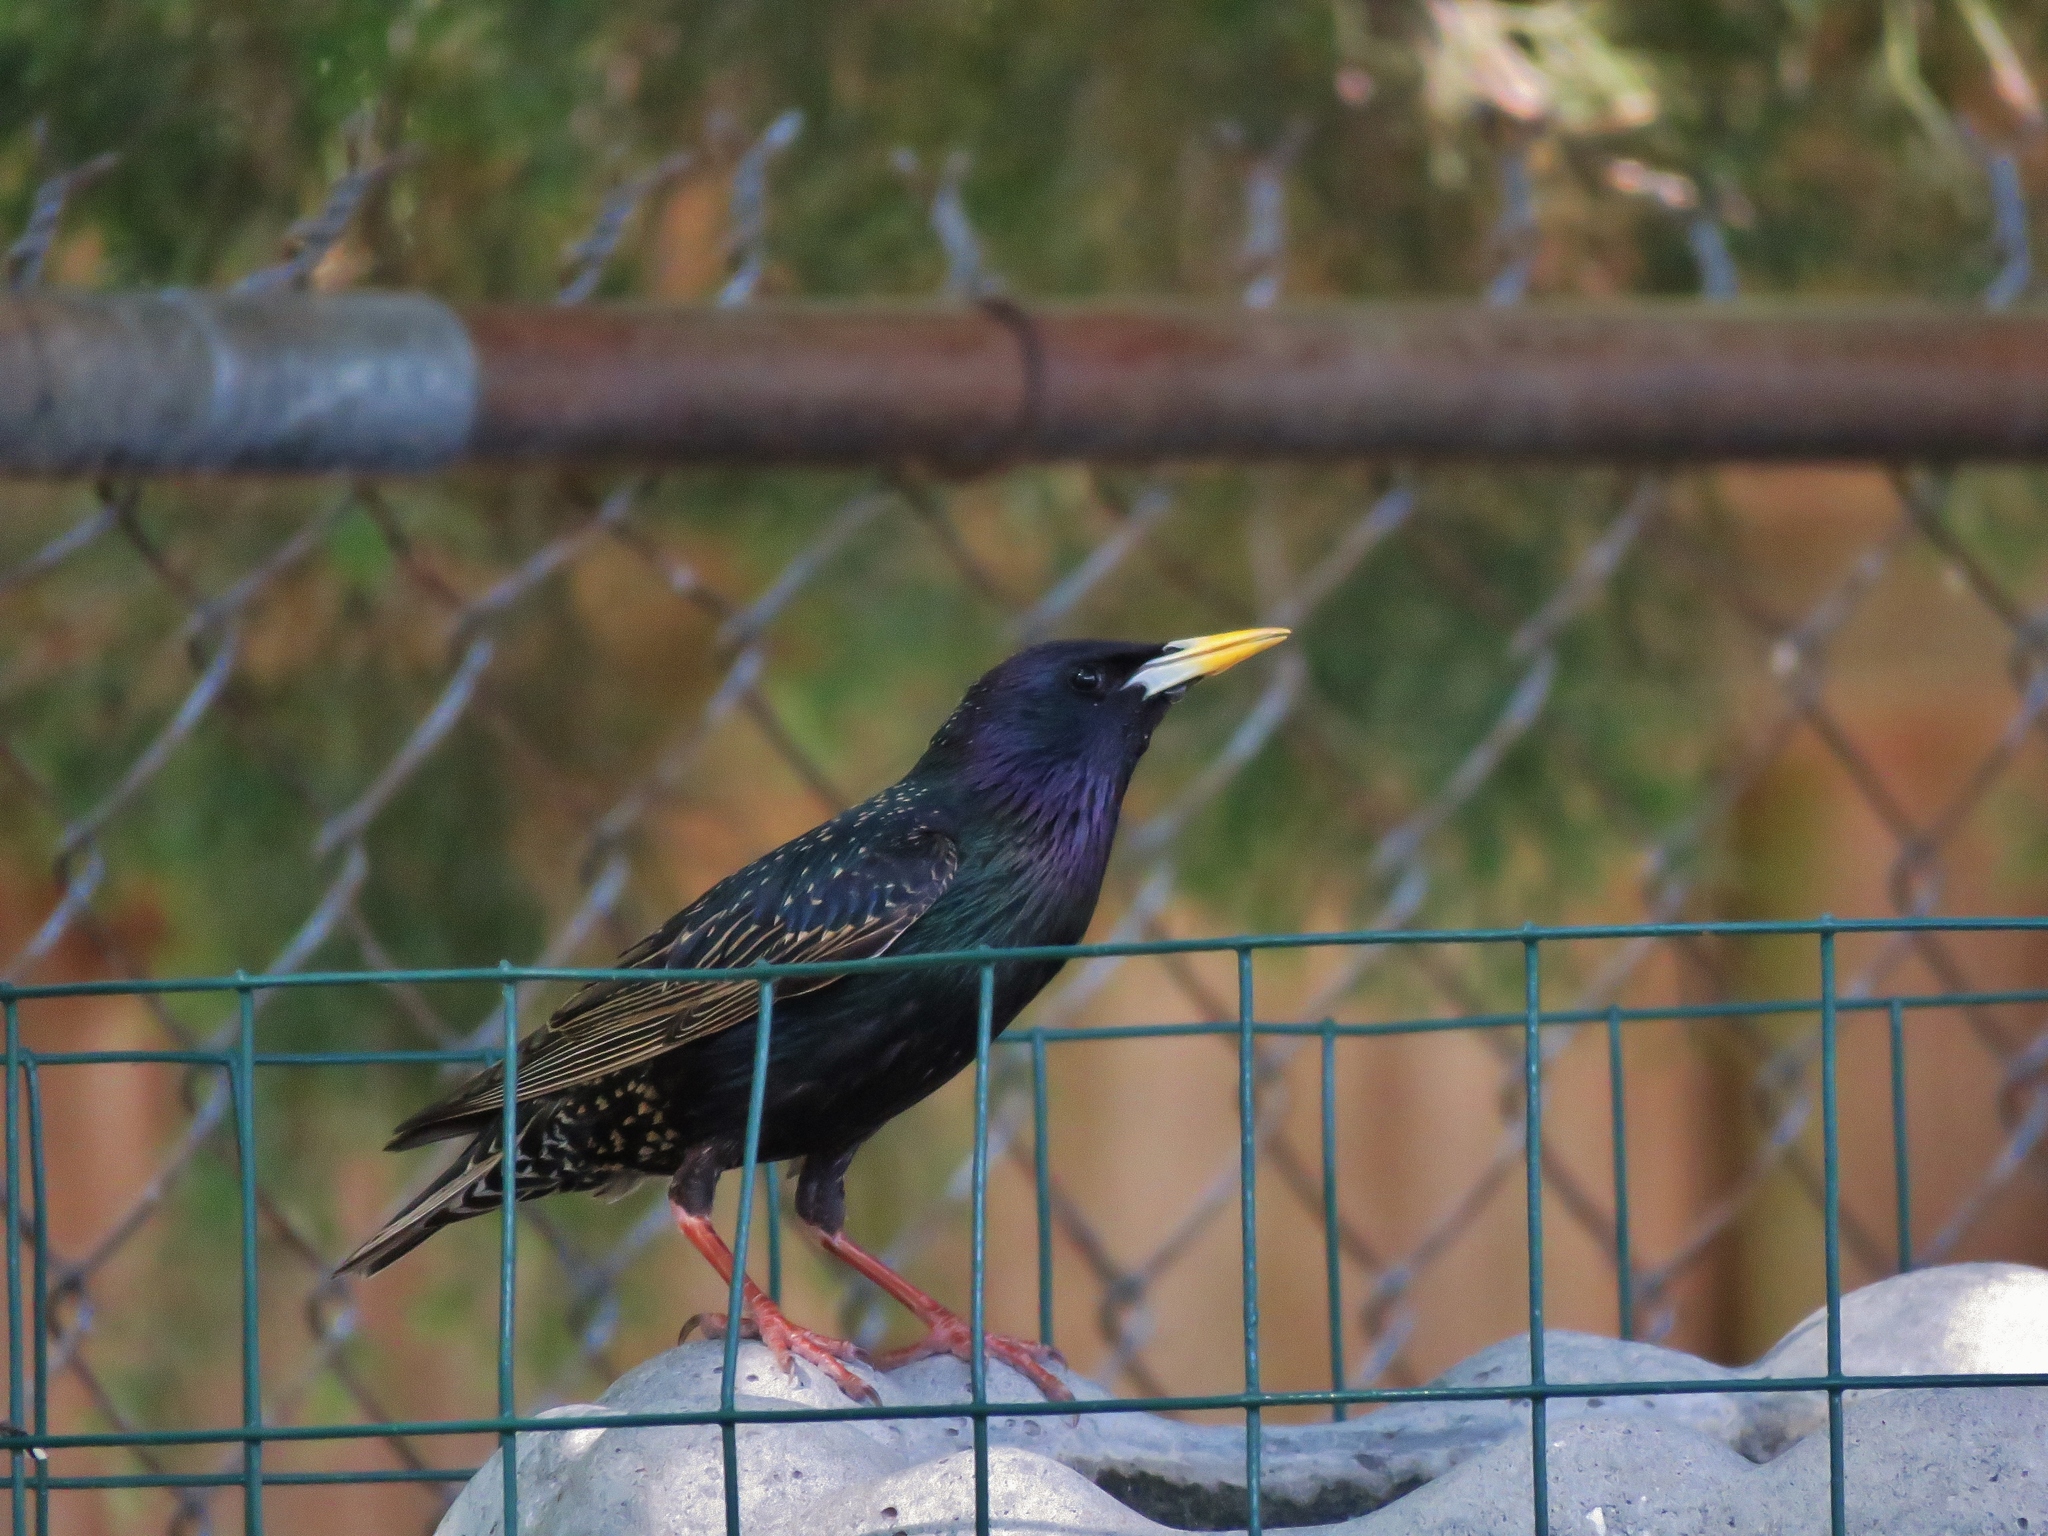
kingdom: Animalia
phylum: Chordata
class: Aves
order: Passeriformes
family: Sturnidae
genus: Sturnus
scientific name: Sturnus vulgaris
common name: Common starling
